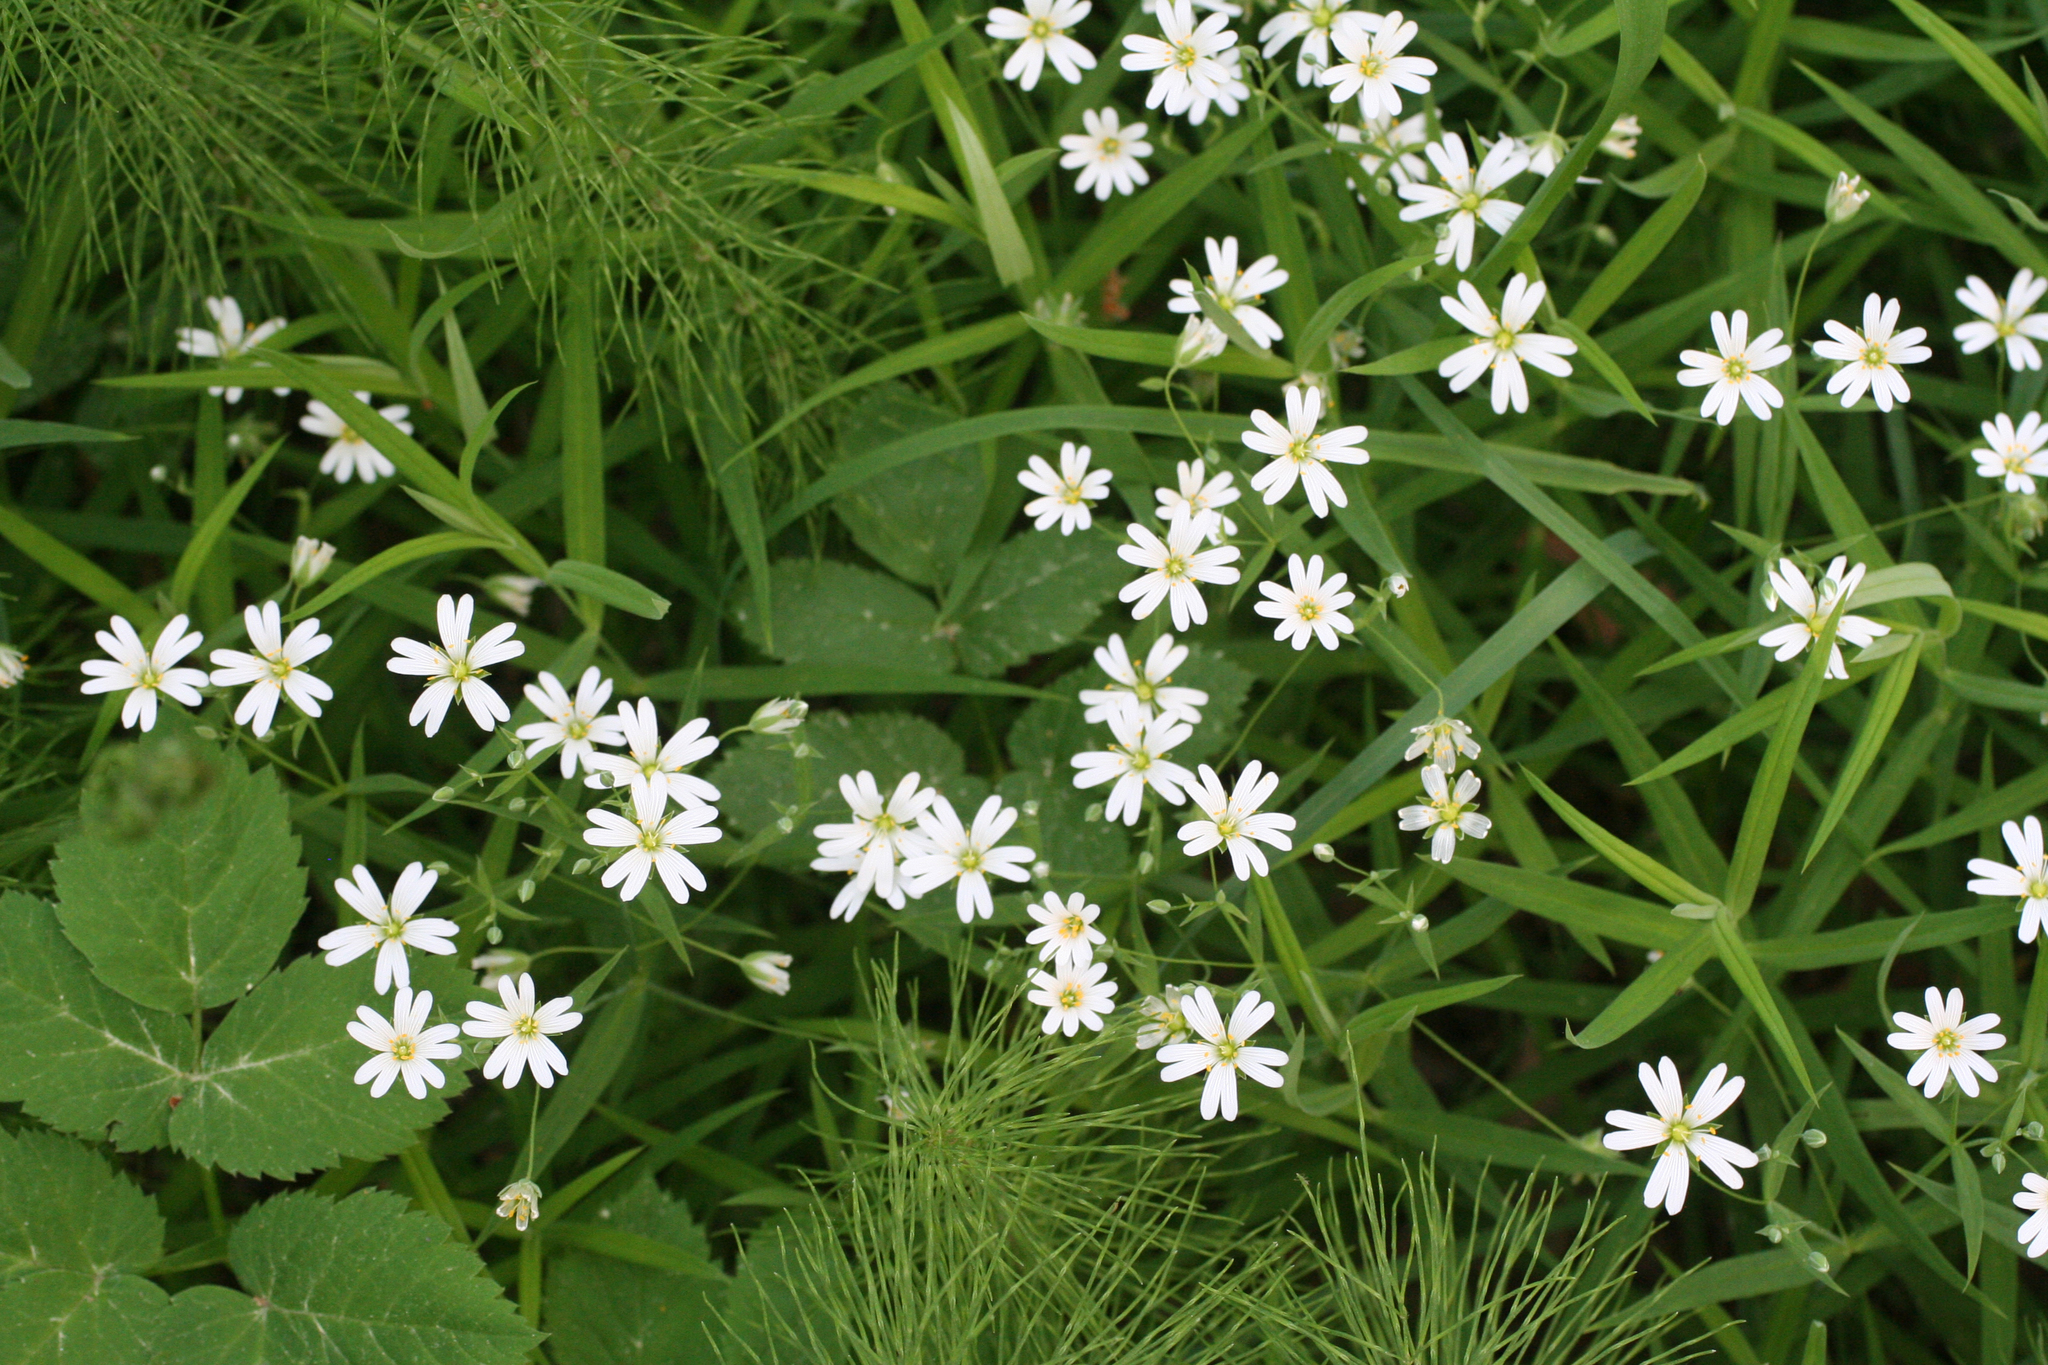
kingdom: Plantae
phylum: Tracheophyta
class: Magnoliopsida
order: Caryophyllales
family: Caryophyllaceae
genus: Rabelera
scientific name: Rabelera holostea
